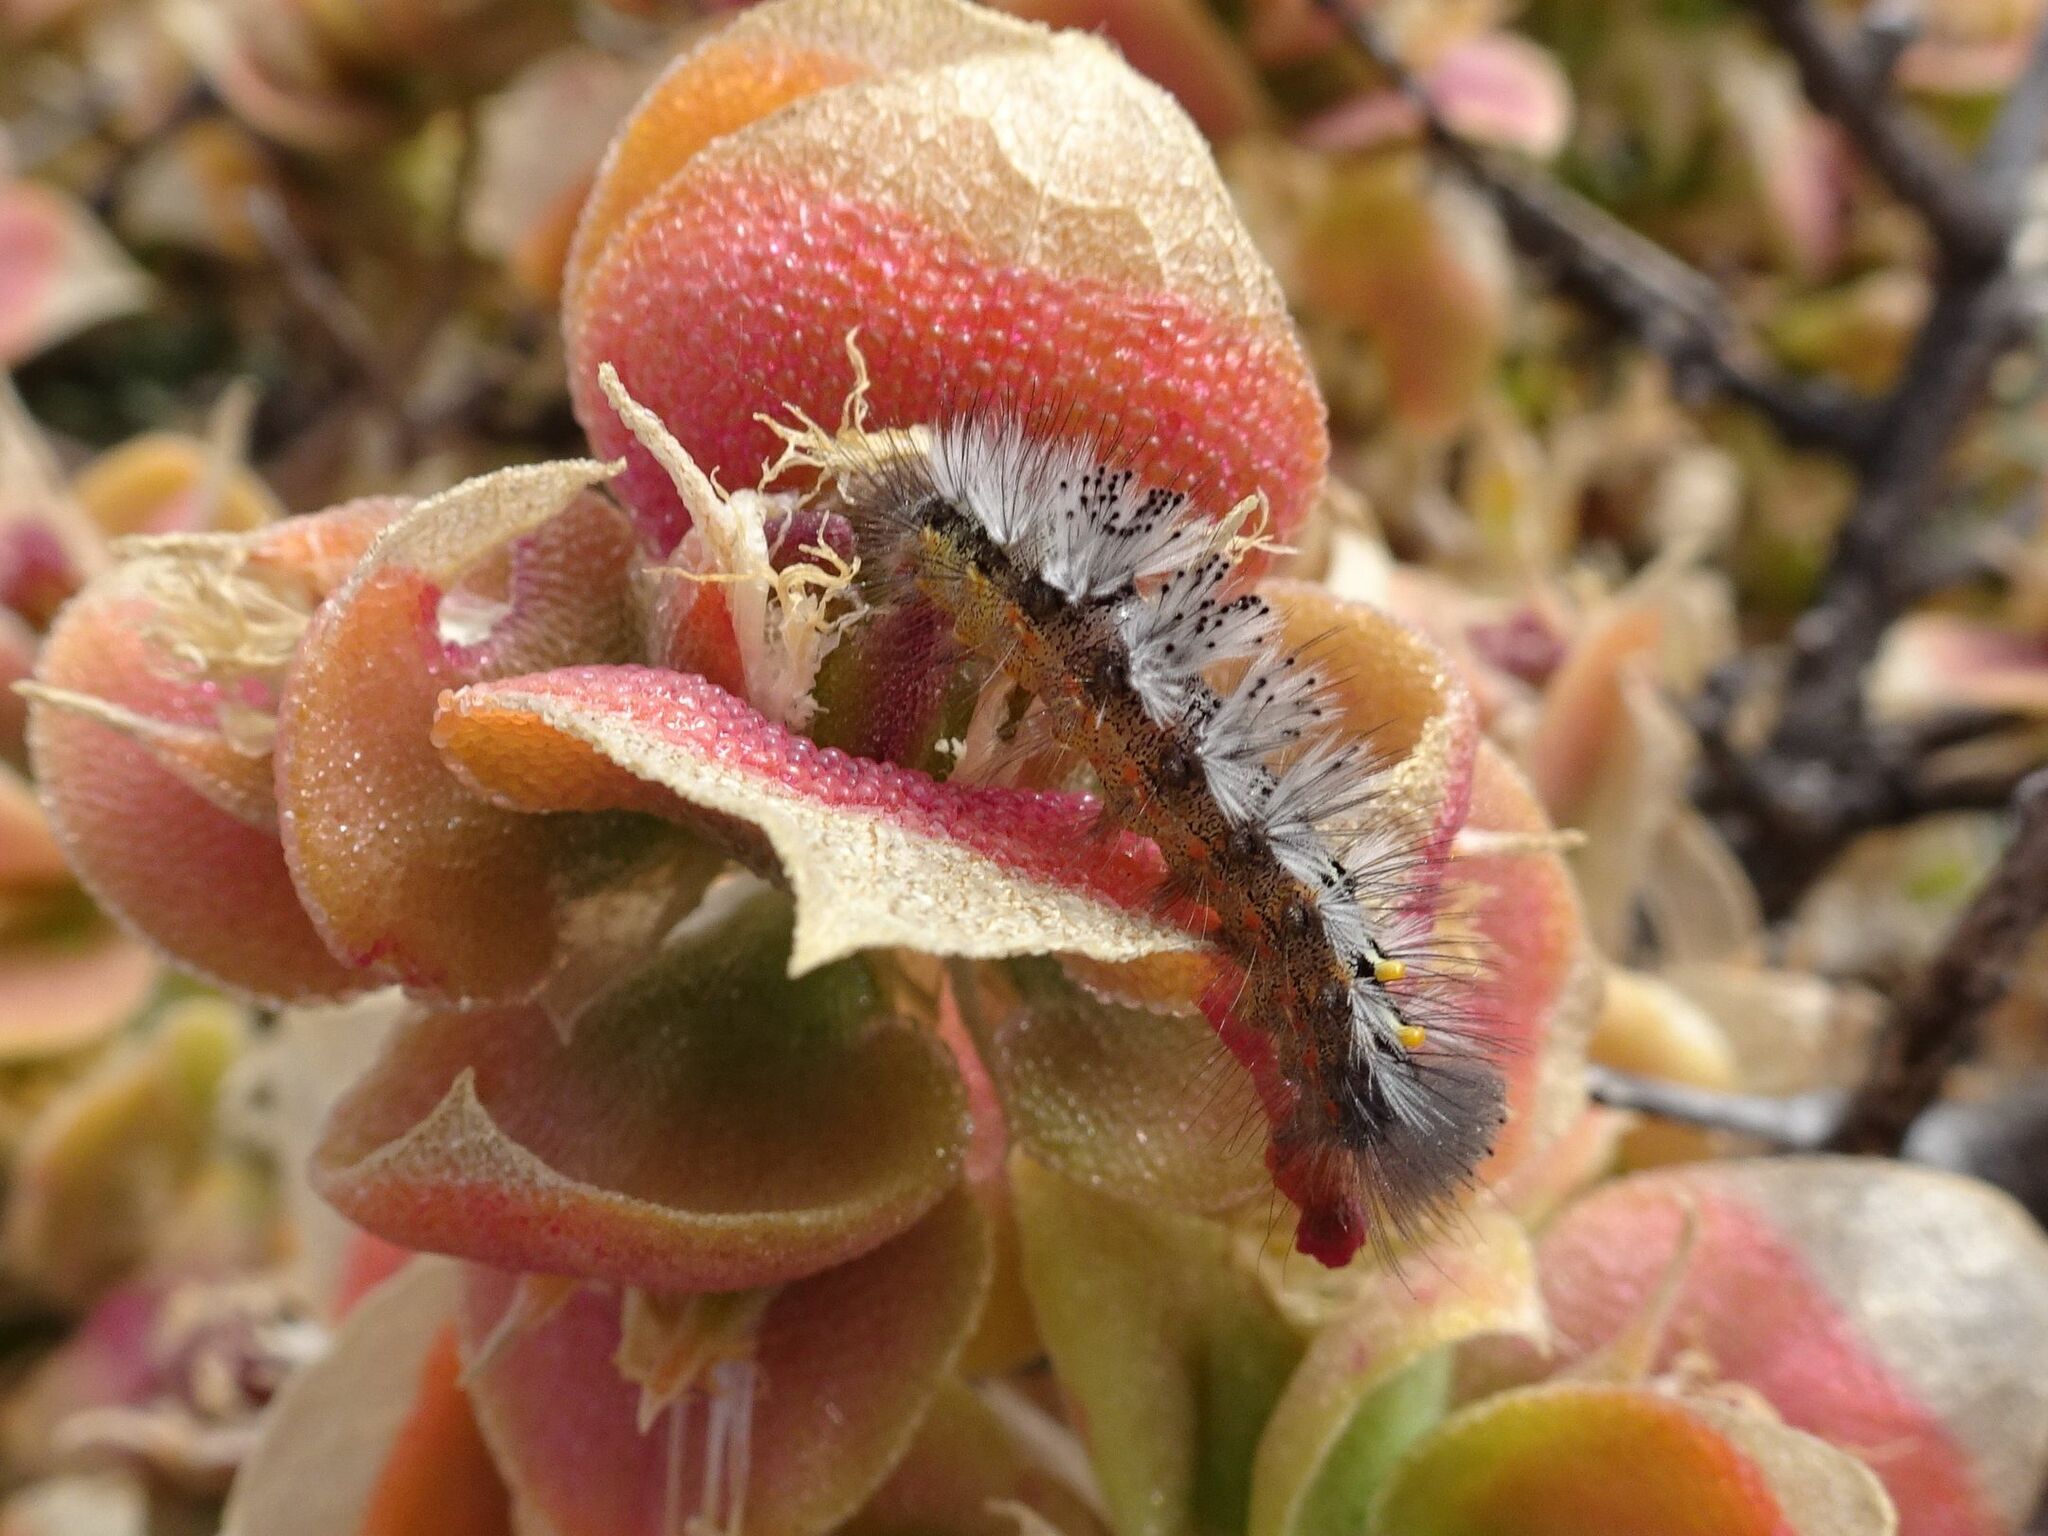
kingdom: Animalia
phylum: Arthropoda
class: Insecta
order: Lepidoptera
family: Erebidae
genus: Orgyia
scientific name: Orgyia tricolor
